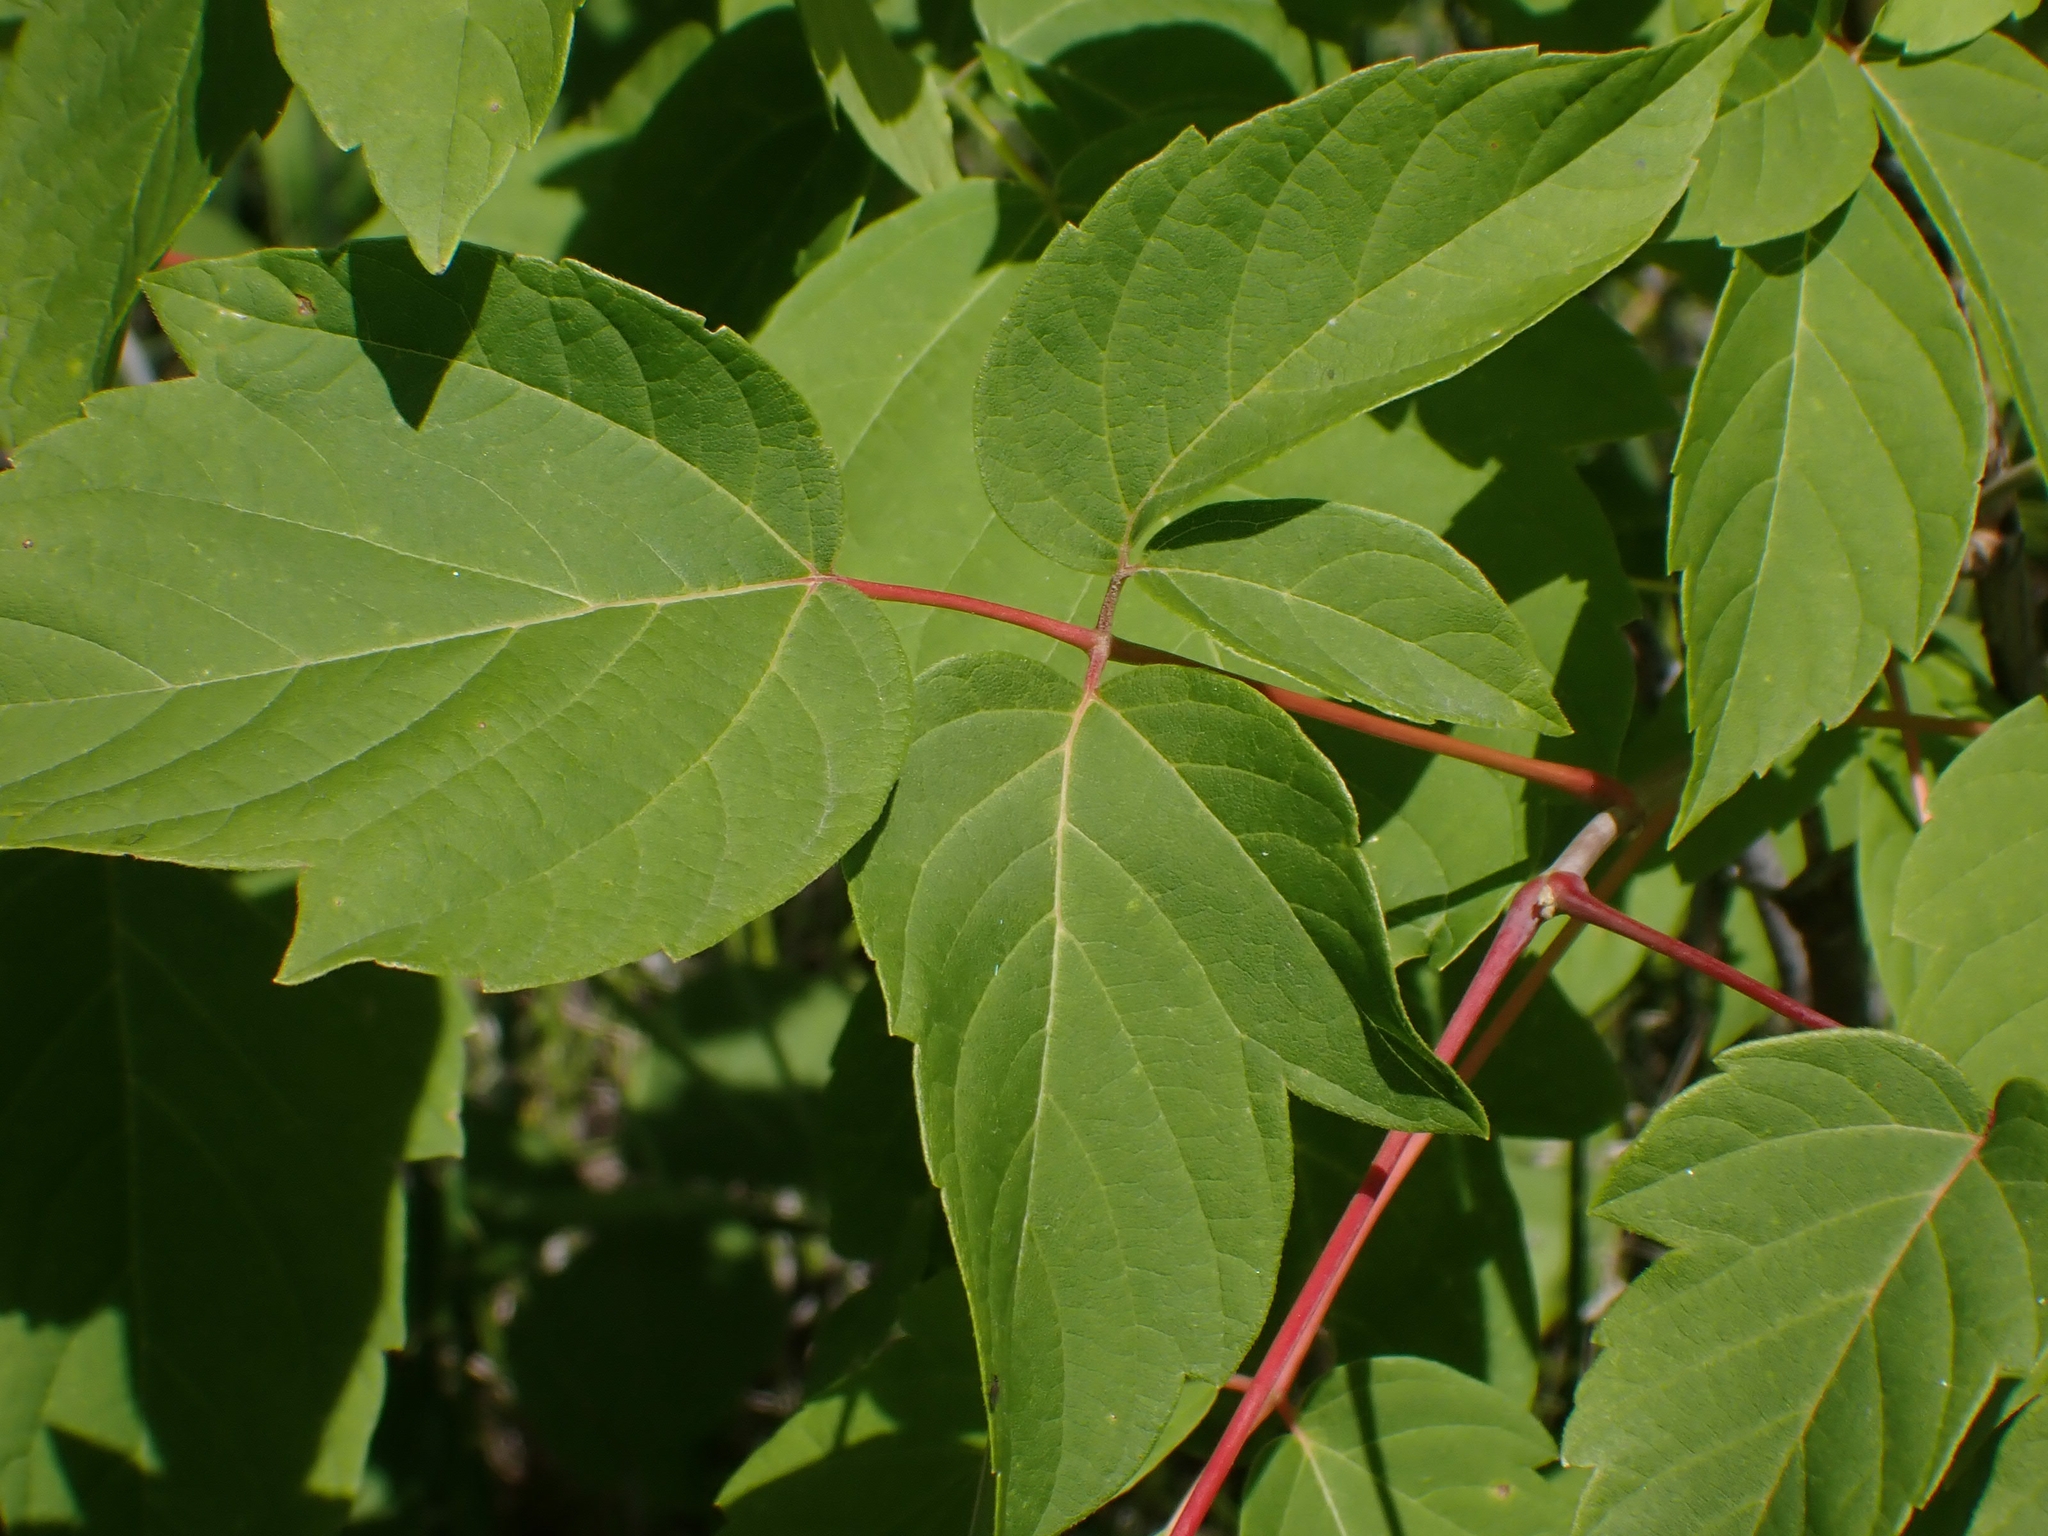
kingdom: Plantae
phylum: Tracheophyta
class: Magnoliopsida
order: Sapindales
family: Sapindaceae
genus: Acer
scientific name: Acer negundo
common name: Ashleaf maple
